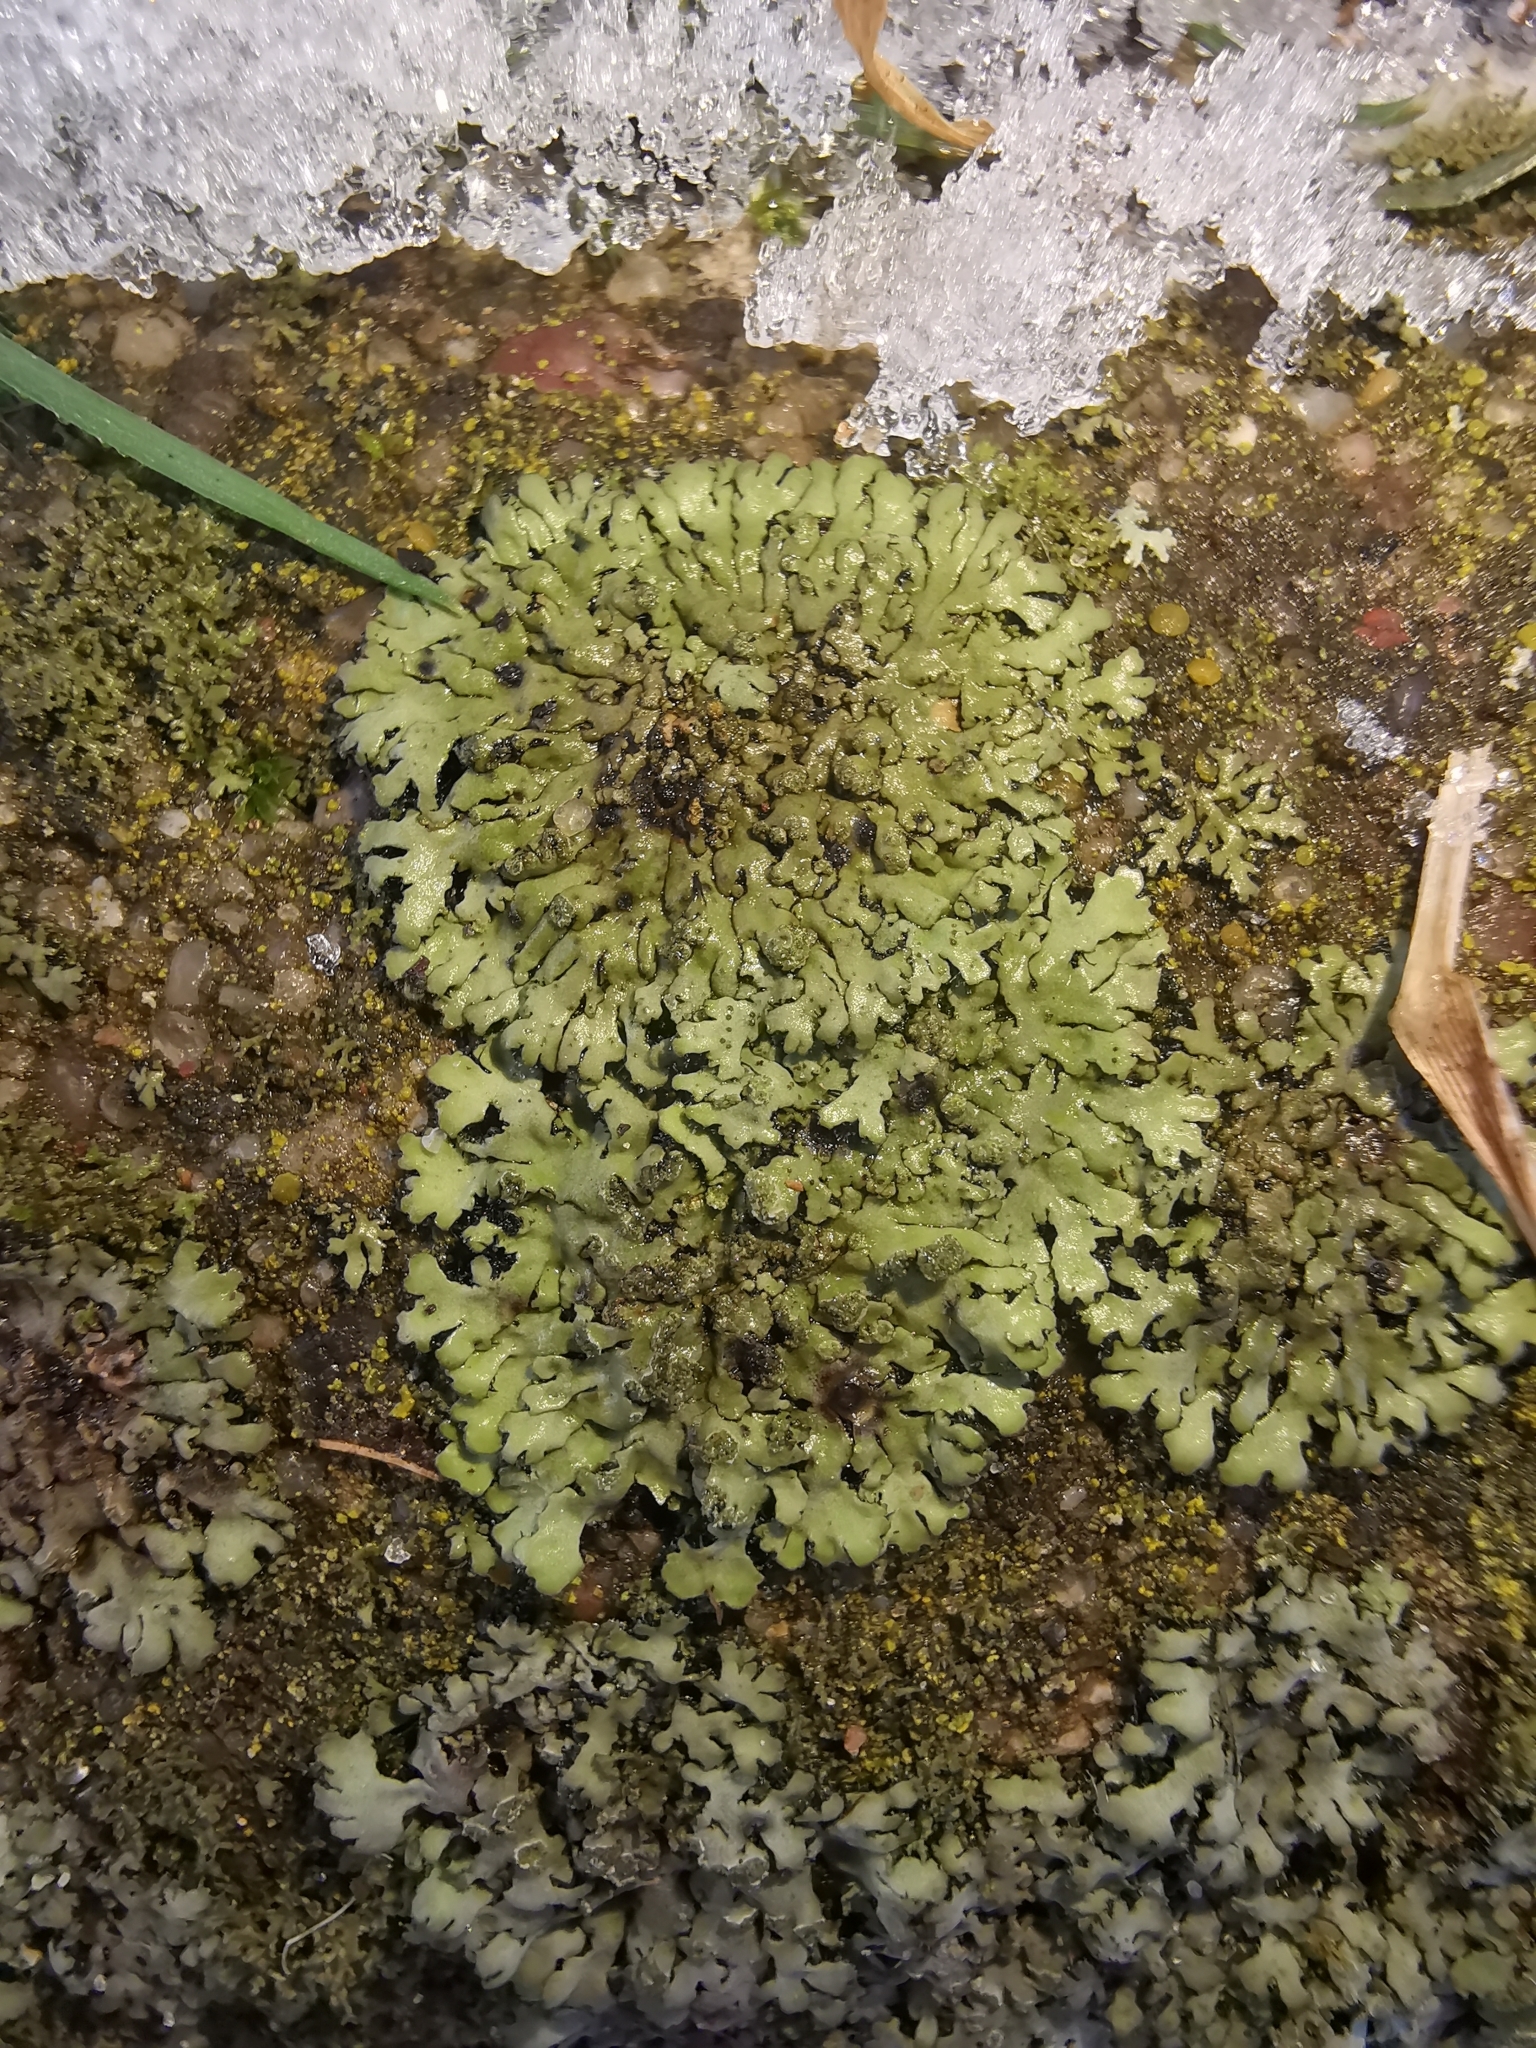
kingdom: Fungi
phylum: Ascomycota
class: Lecanoromycetes
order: Caliciales
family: Physciaceae
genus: Phaeophyscia
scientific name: Phaeophyscia orbicularis
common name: Mealy shadow lichen
